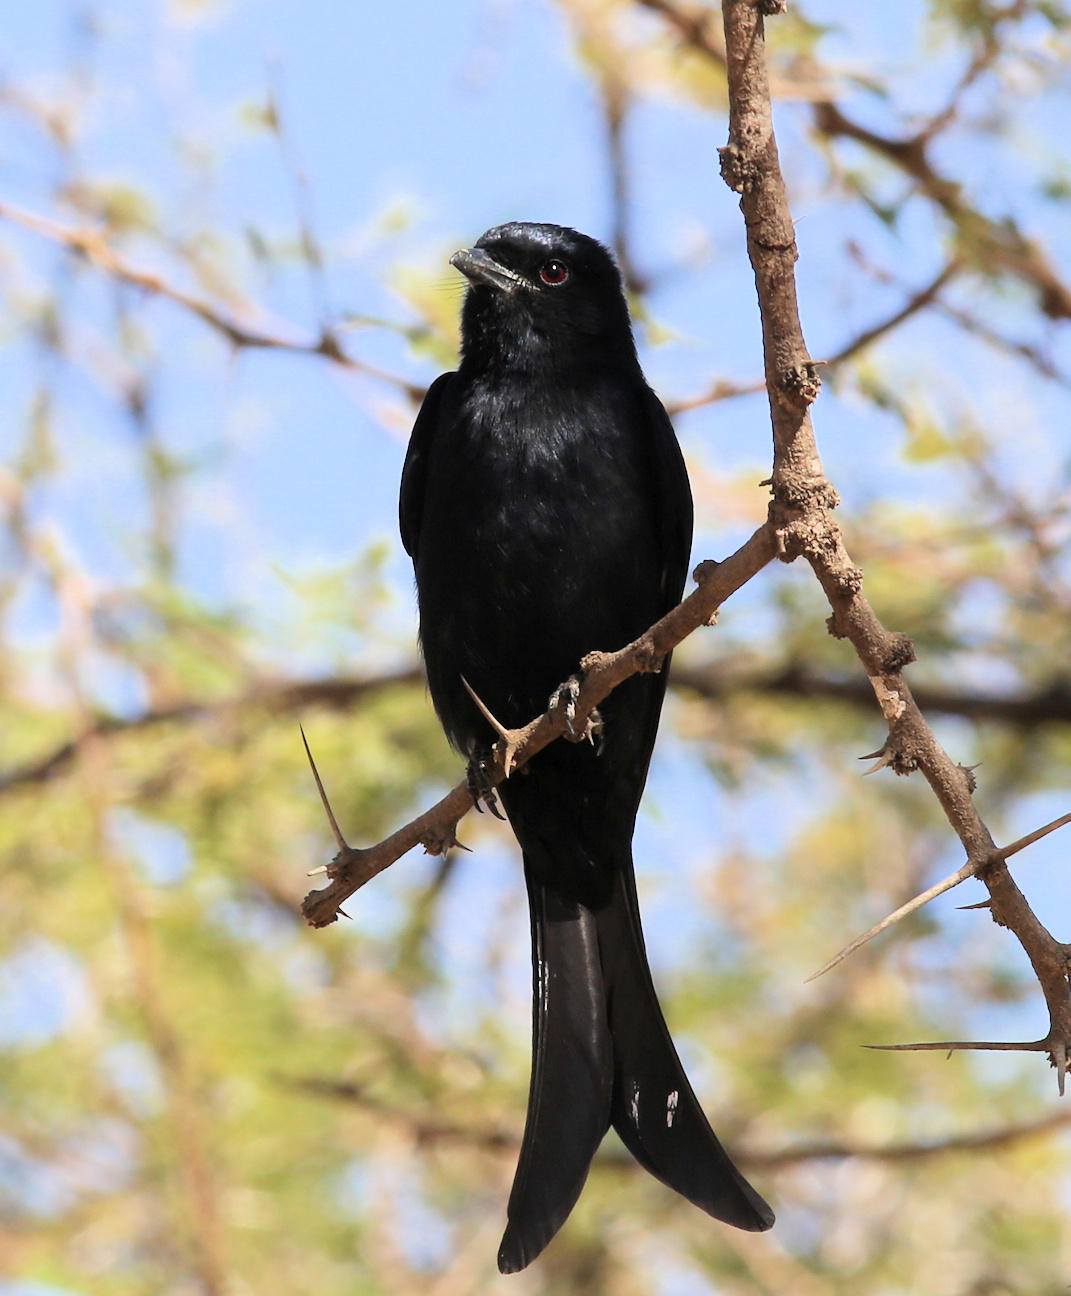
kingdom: Animalia
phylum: Chordata
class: Aves
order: Passeriformes
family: Dicruridae
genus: Dicrurus
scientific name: Dicrurus adsimilis
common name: Fork-tailed drongo
